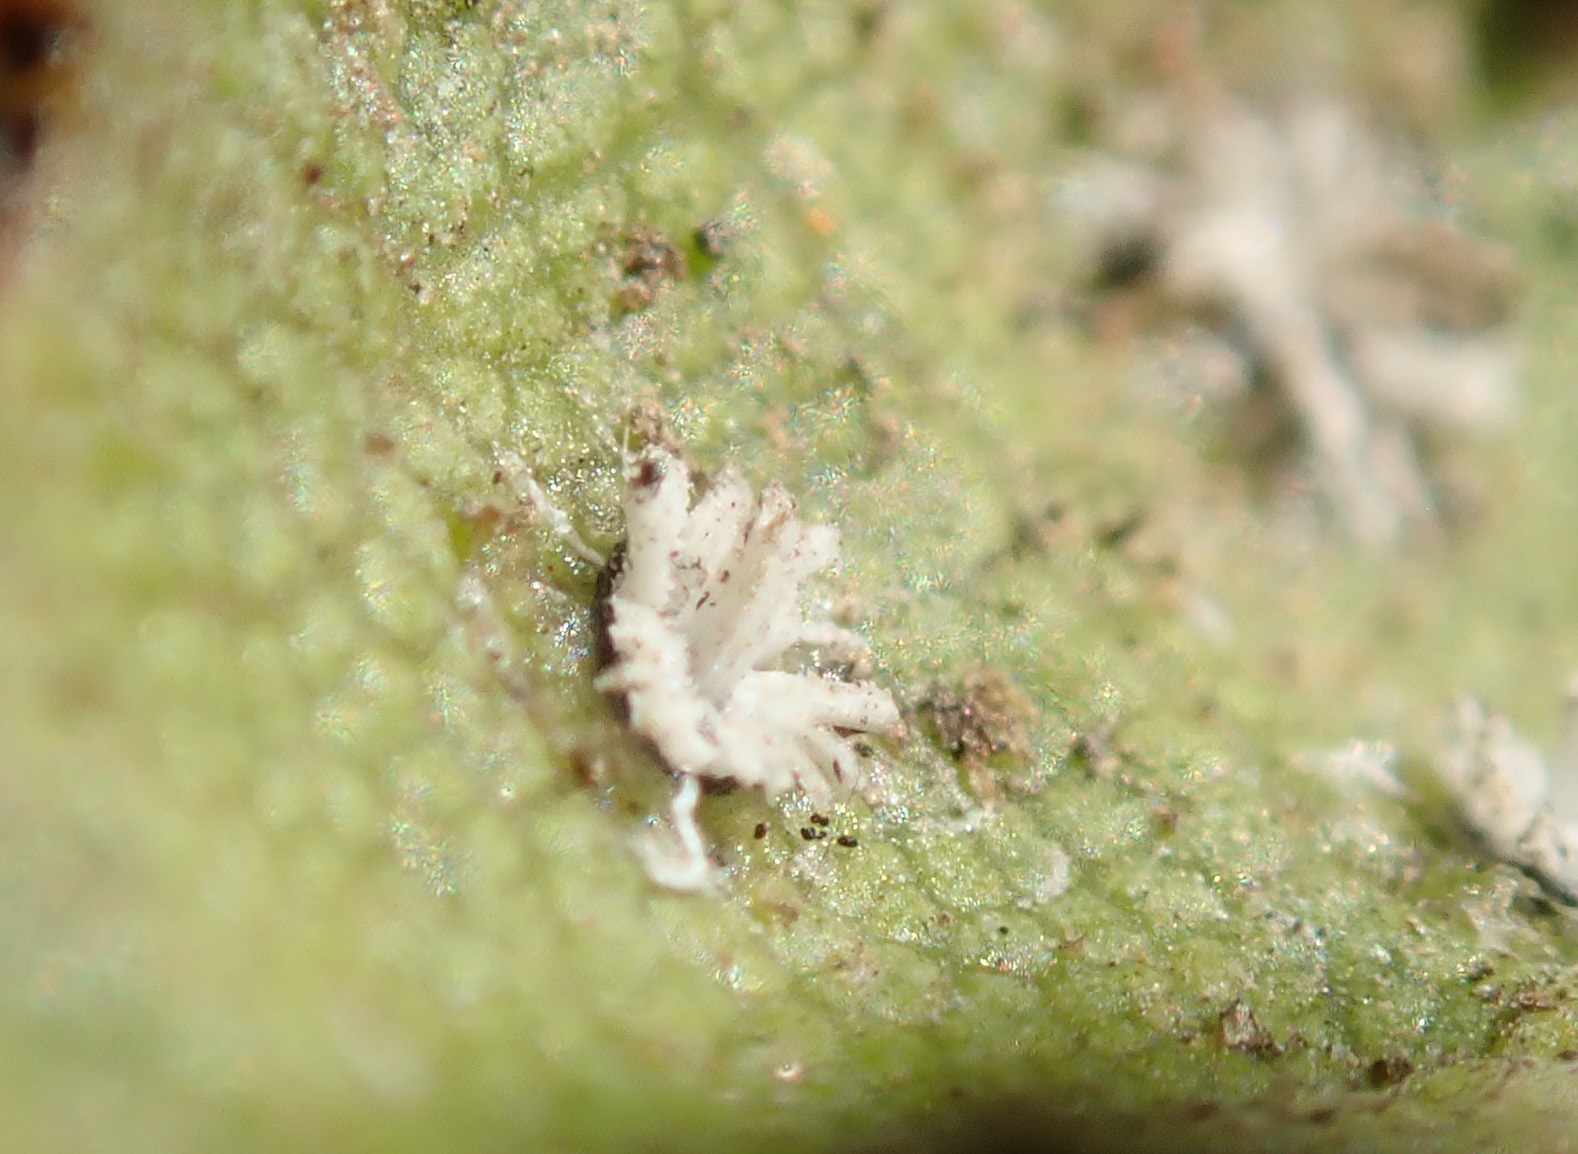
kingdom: Animalia
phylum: Arthropoda
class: Insecta
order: Hemiptera
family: Aleyrodidae
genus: Aleuroplatus
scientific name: Aleuroplatus coronata
